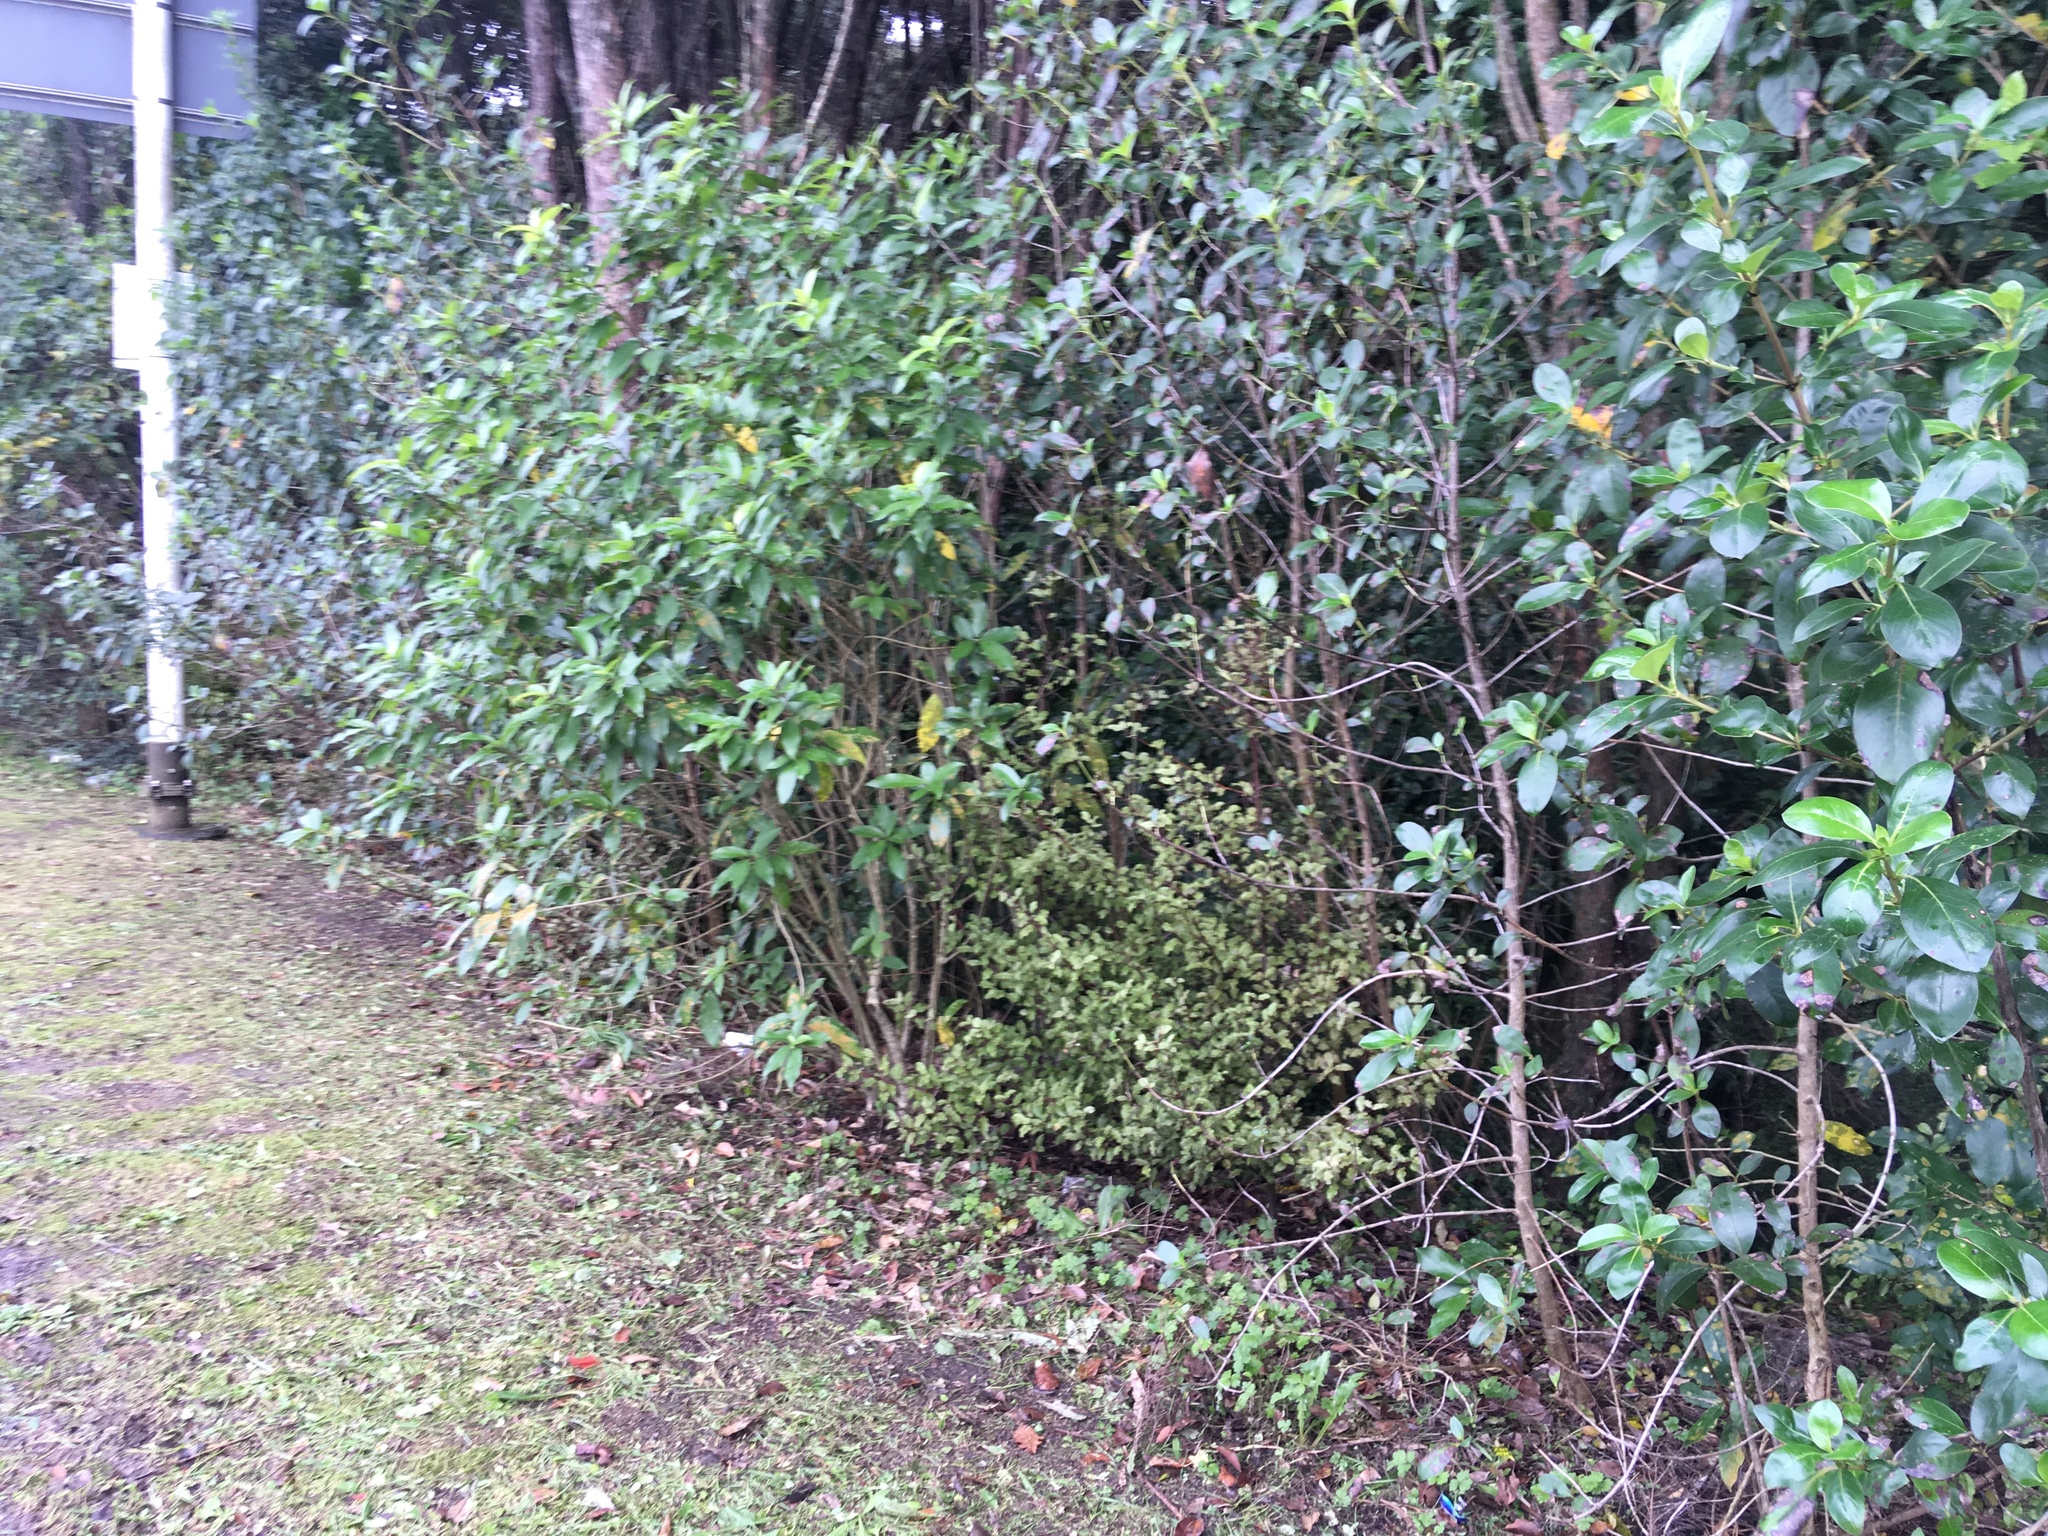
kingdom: Plantae
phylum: Tracheophyta
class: Magnoliopsida
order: Ericales
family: Primulaceae
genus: Myrsine
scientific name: Myrsine australis
